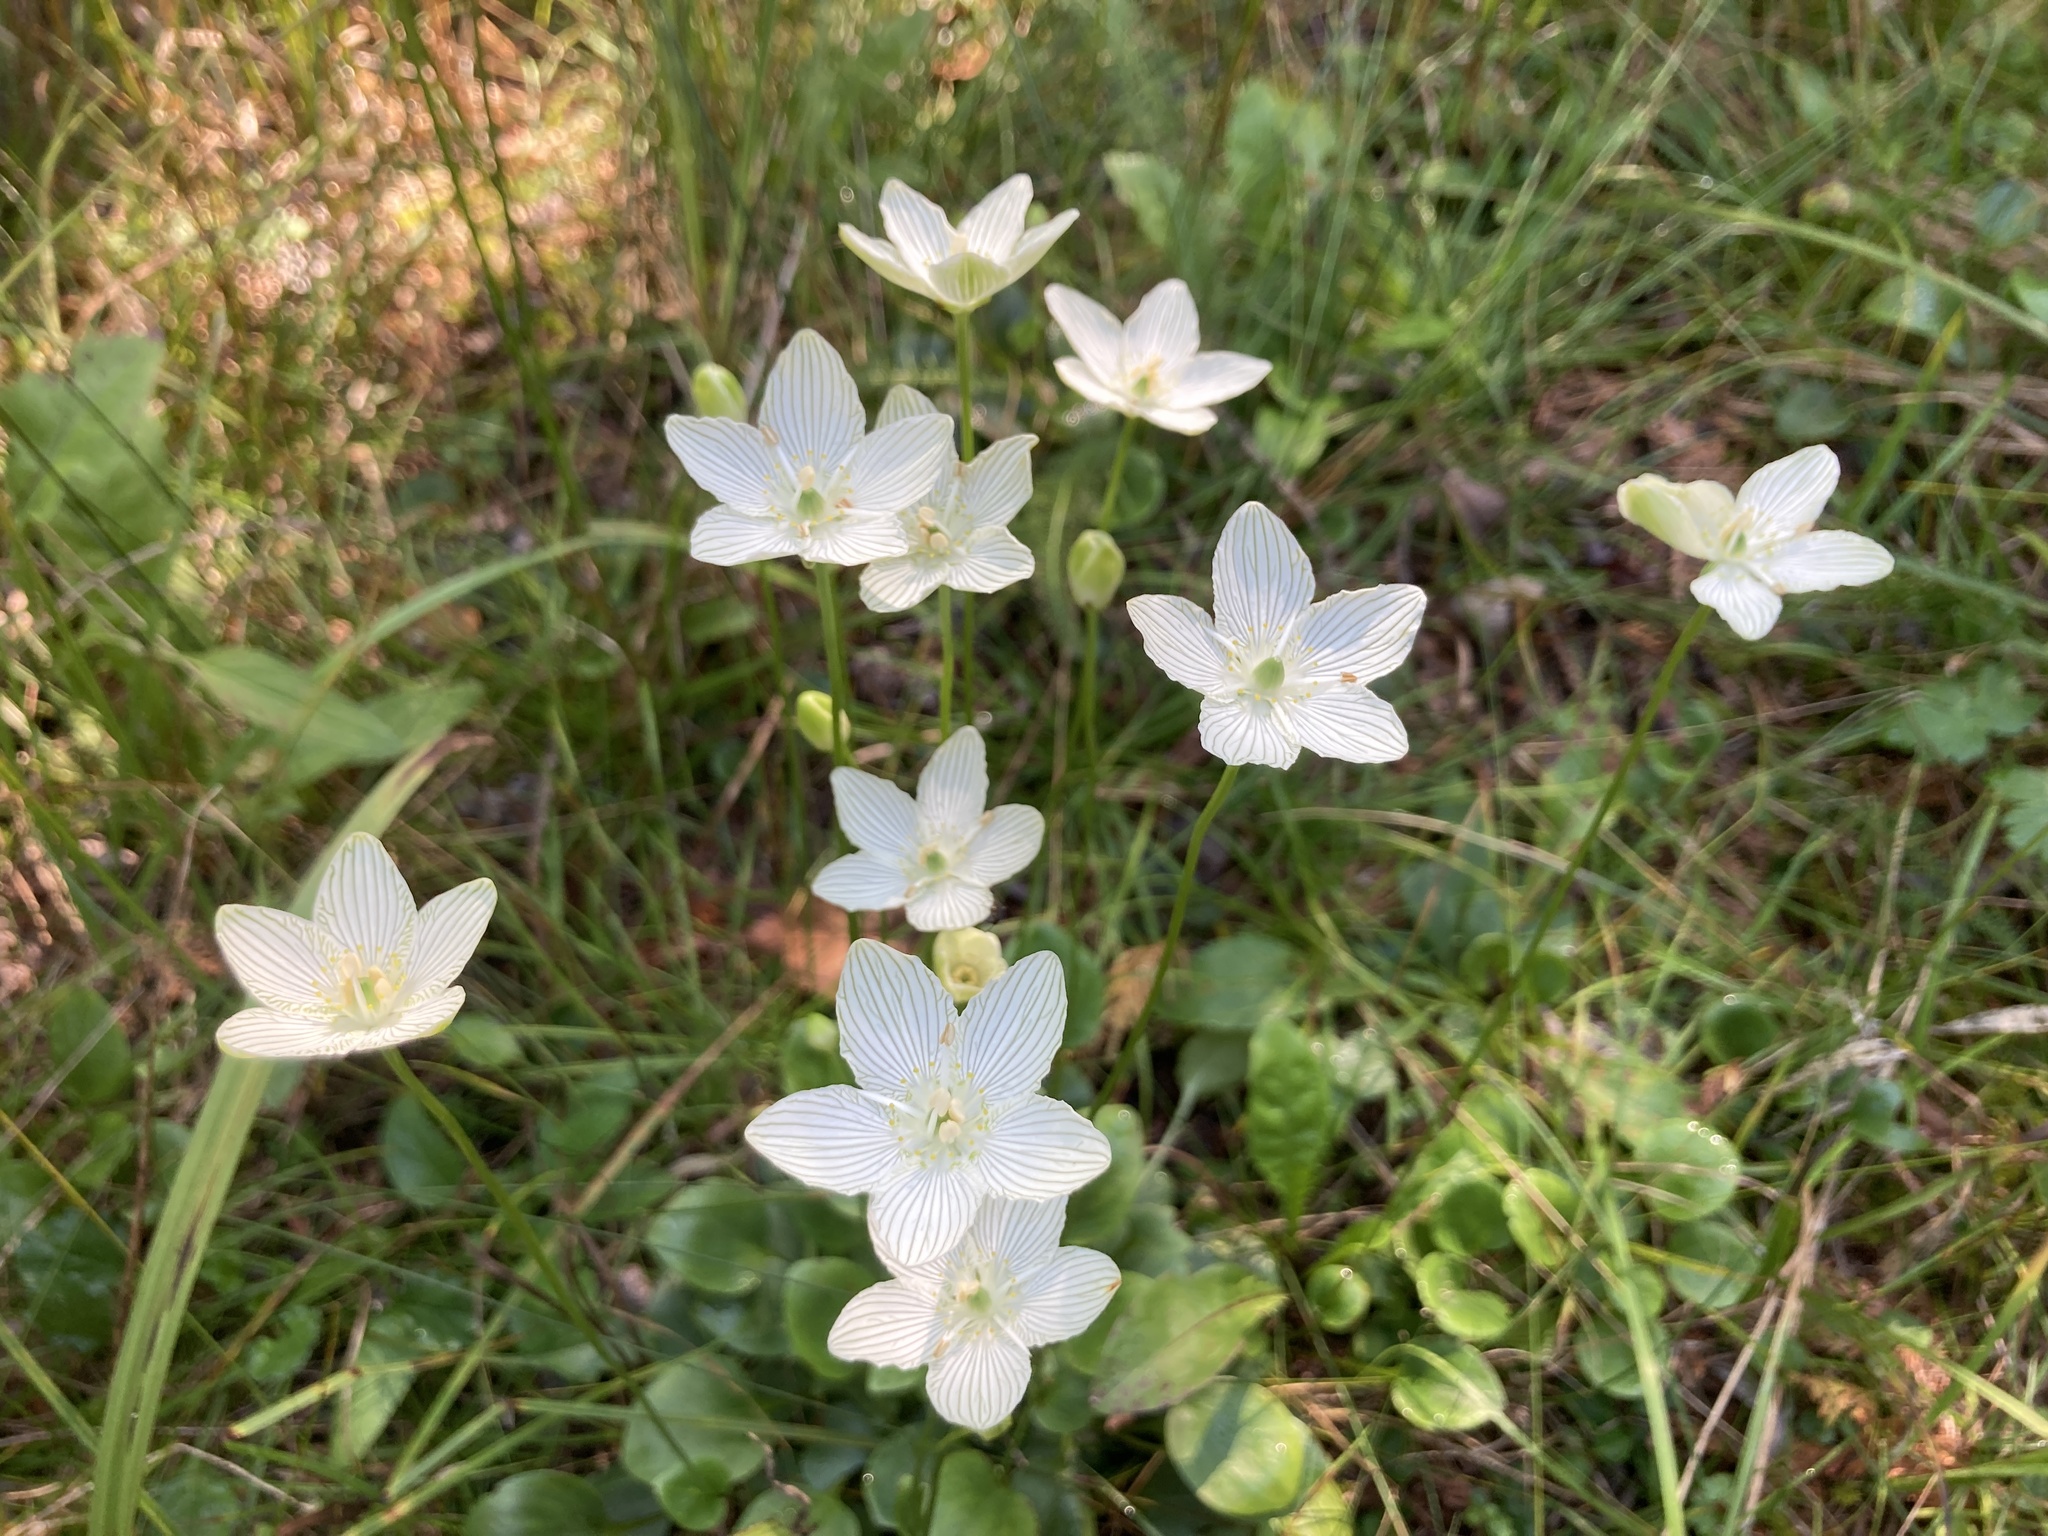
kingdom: Plantae
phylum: Tracheophyta
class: Magnoliopsida
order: Celastrales
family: Parnassiaceae
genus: Parnassia
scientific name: Parnassia glauca
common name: American grass-of-parnassus
